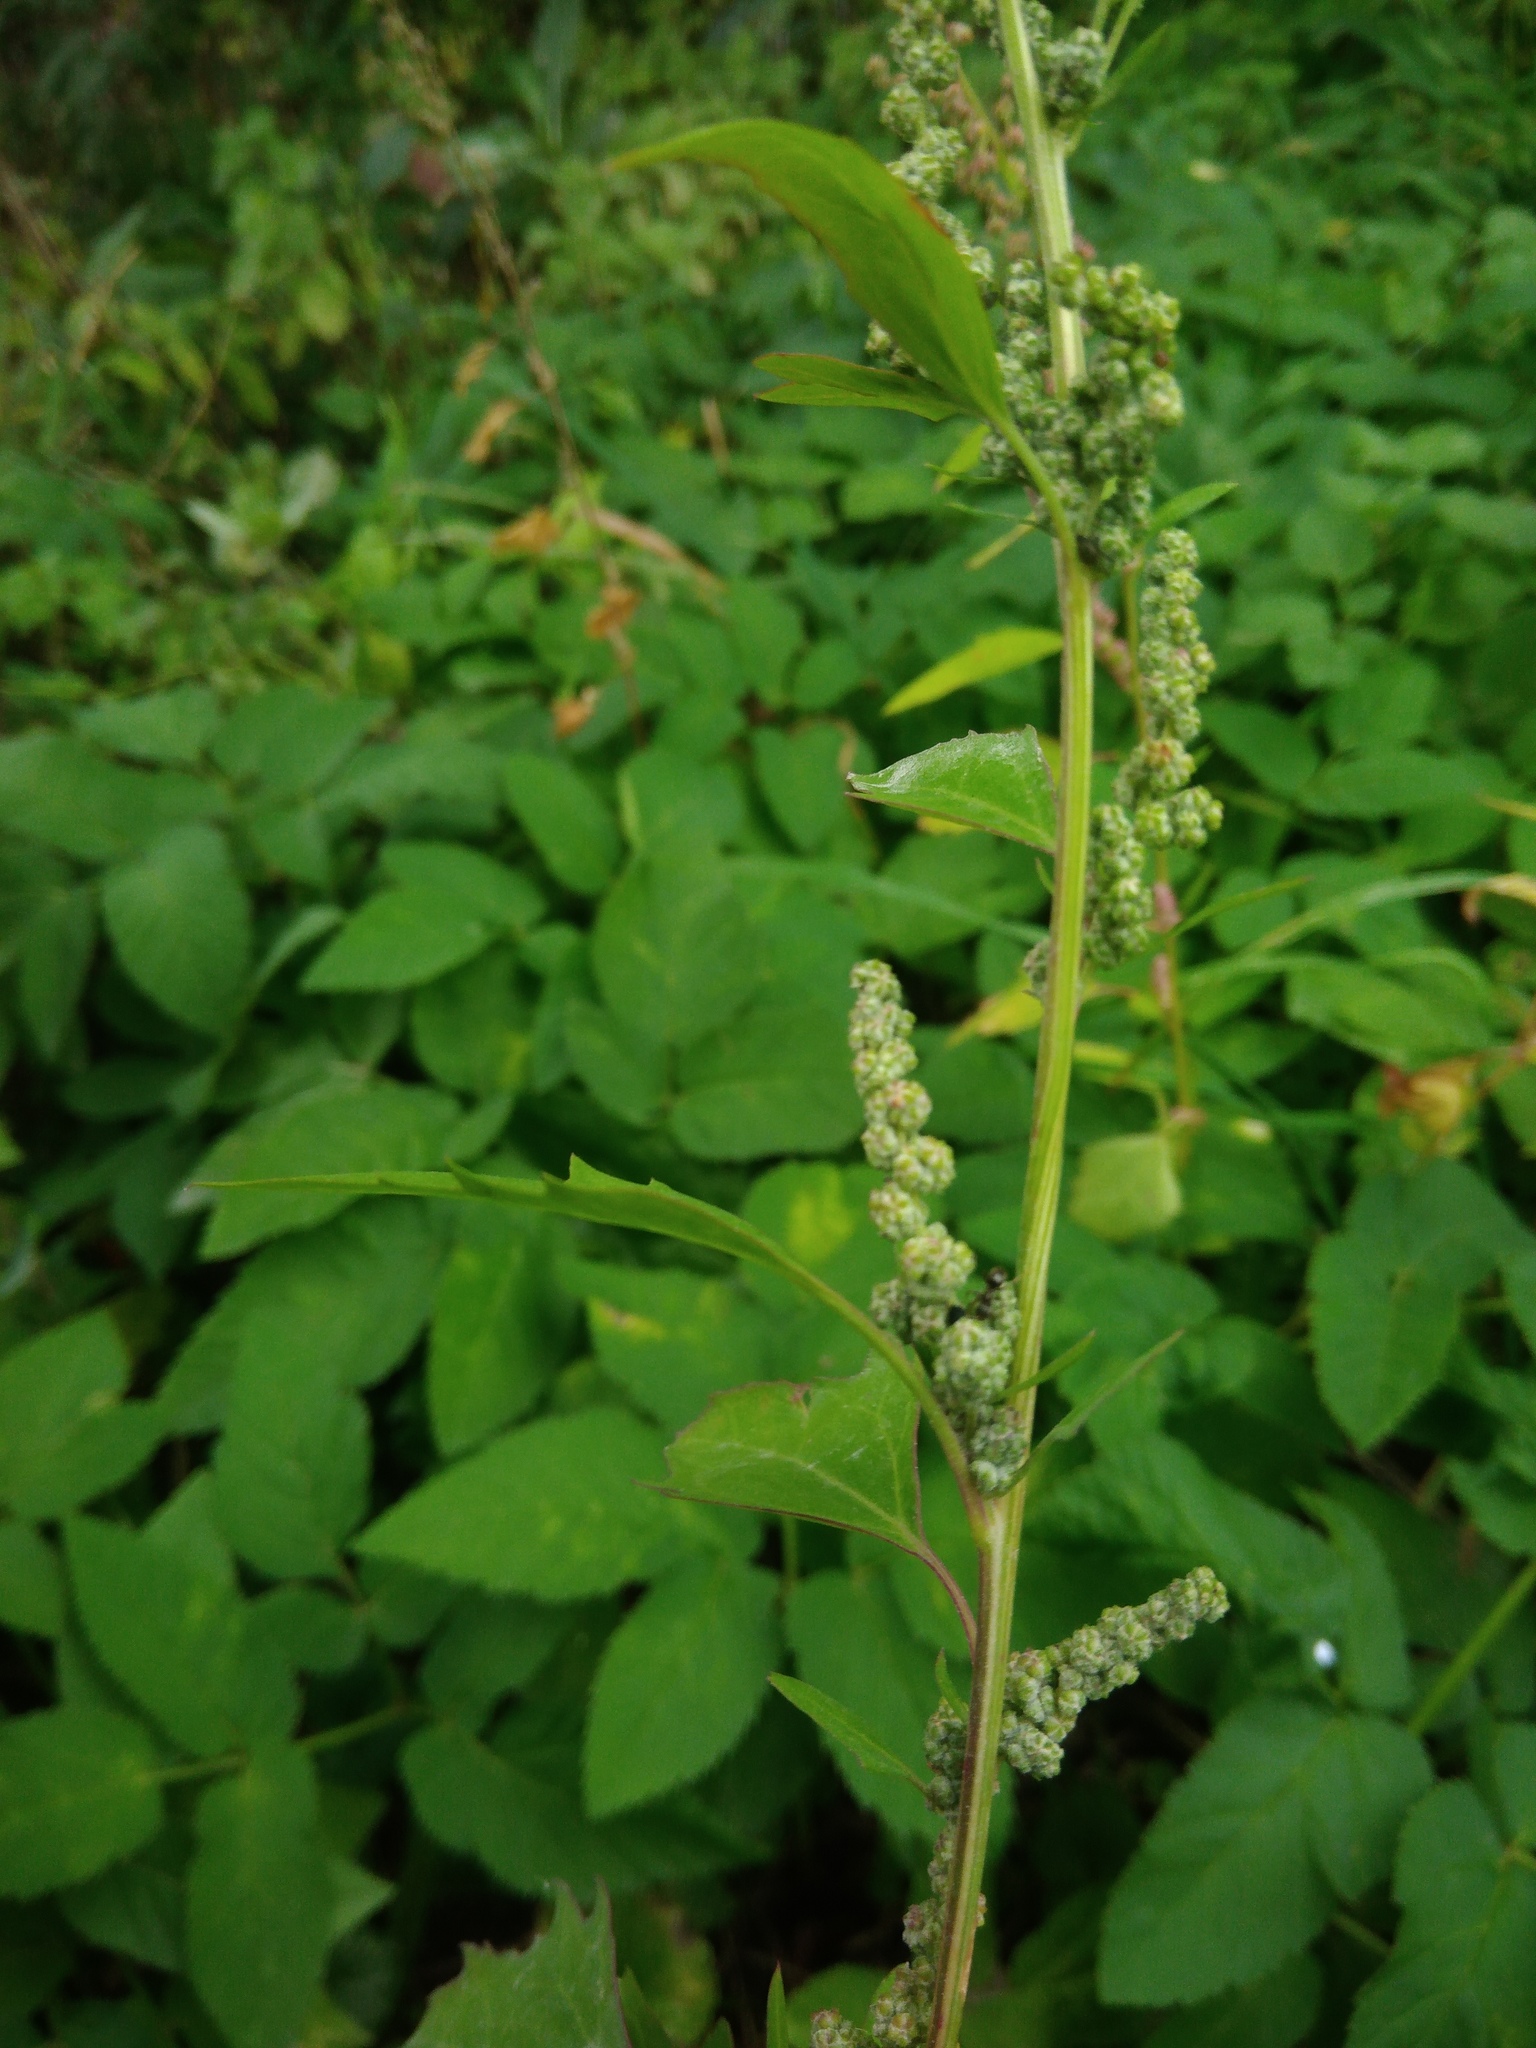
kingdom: Plantae
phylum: Tracheophyta
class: Magnoliopsida
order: Caryophyllales
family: Amaranthaceae
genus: Chenopodium
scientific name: Chenopodium album
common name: Fat-hen
